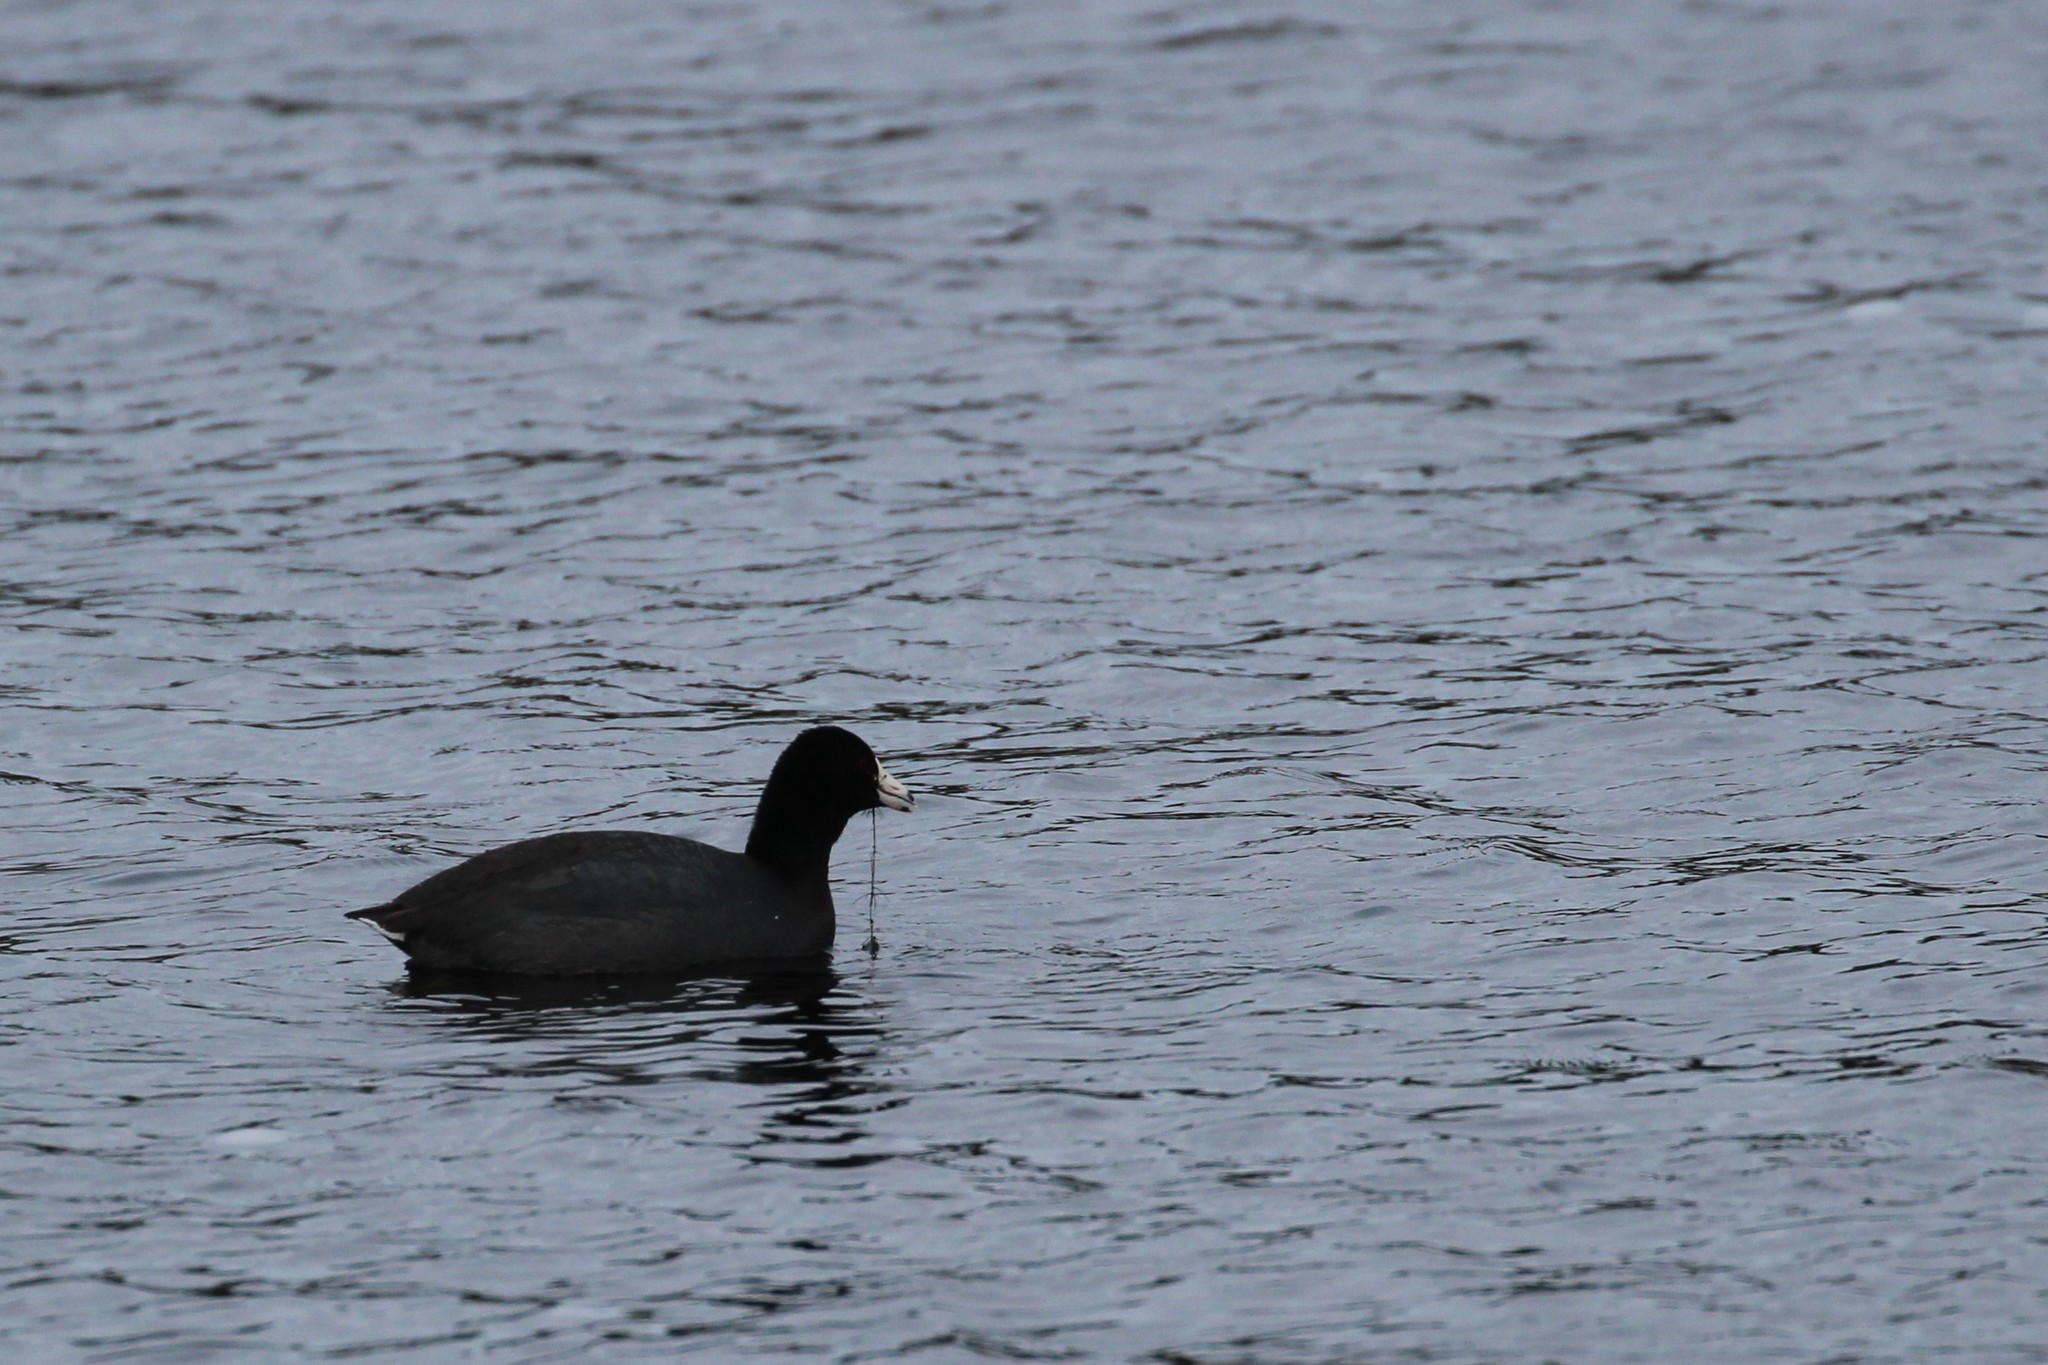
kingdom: Animalia
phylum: Chordata
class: Aves
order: Gruiformes
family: Rallidae
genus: Fulica
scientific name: Fulica americana
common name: American coot
